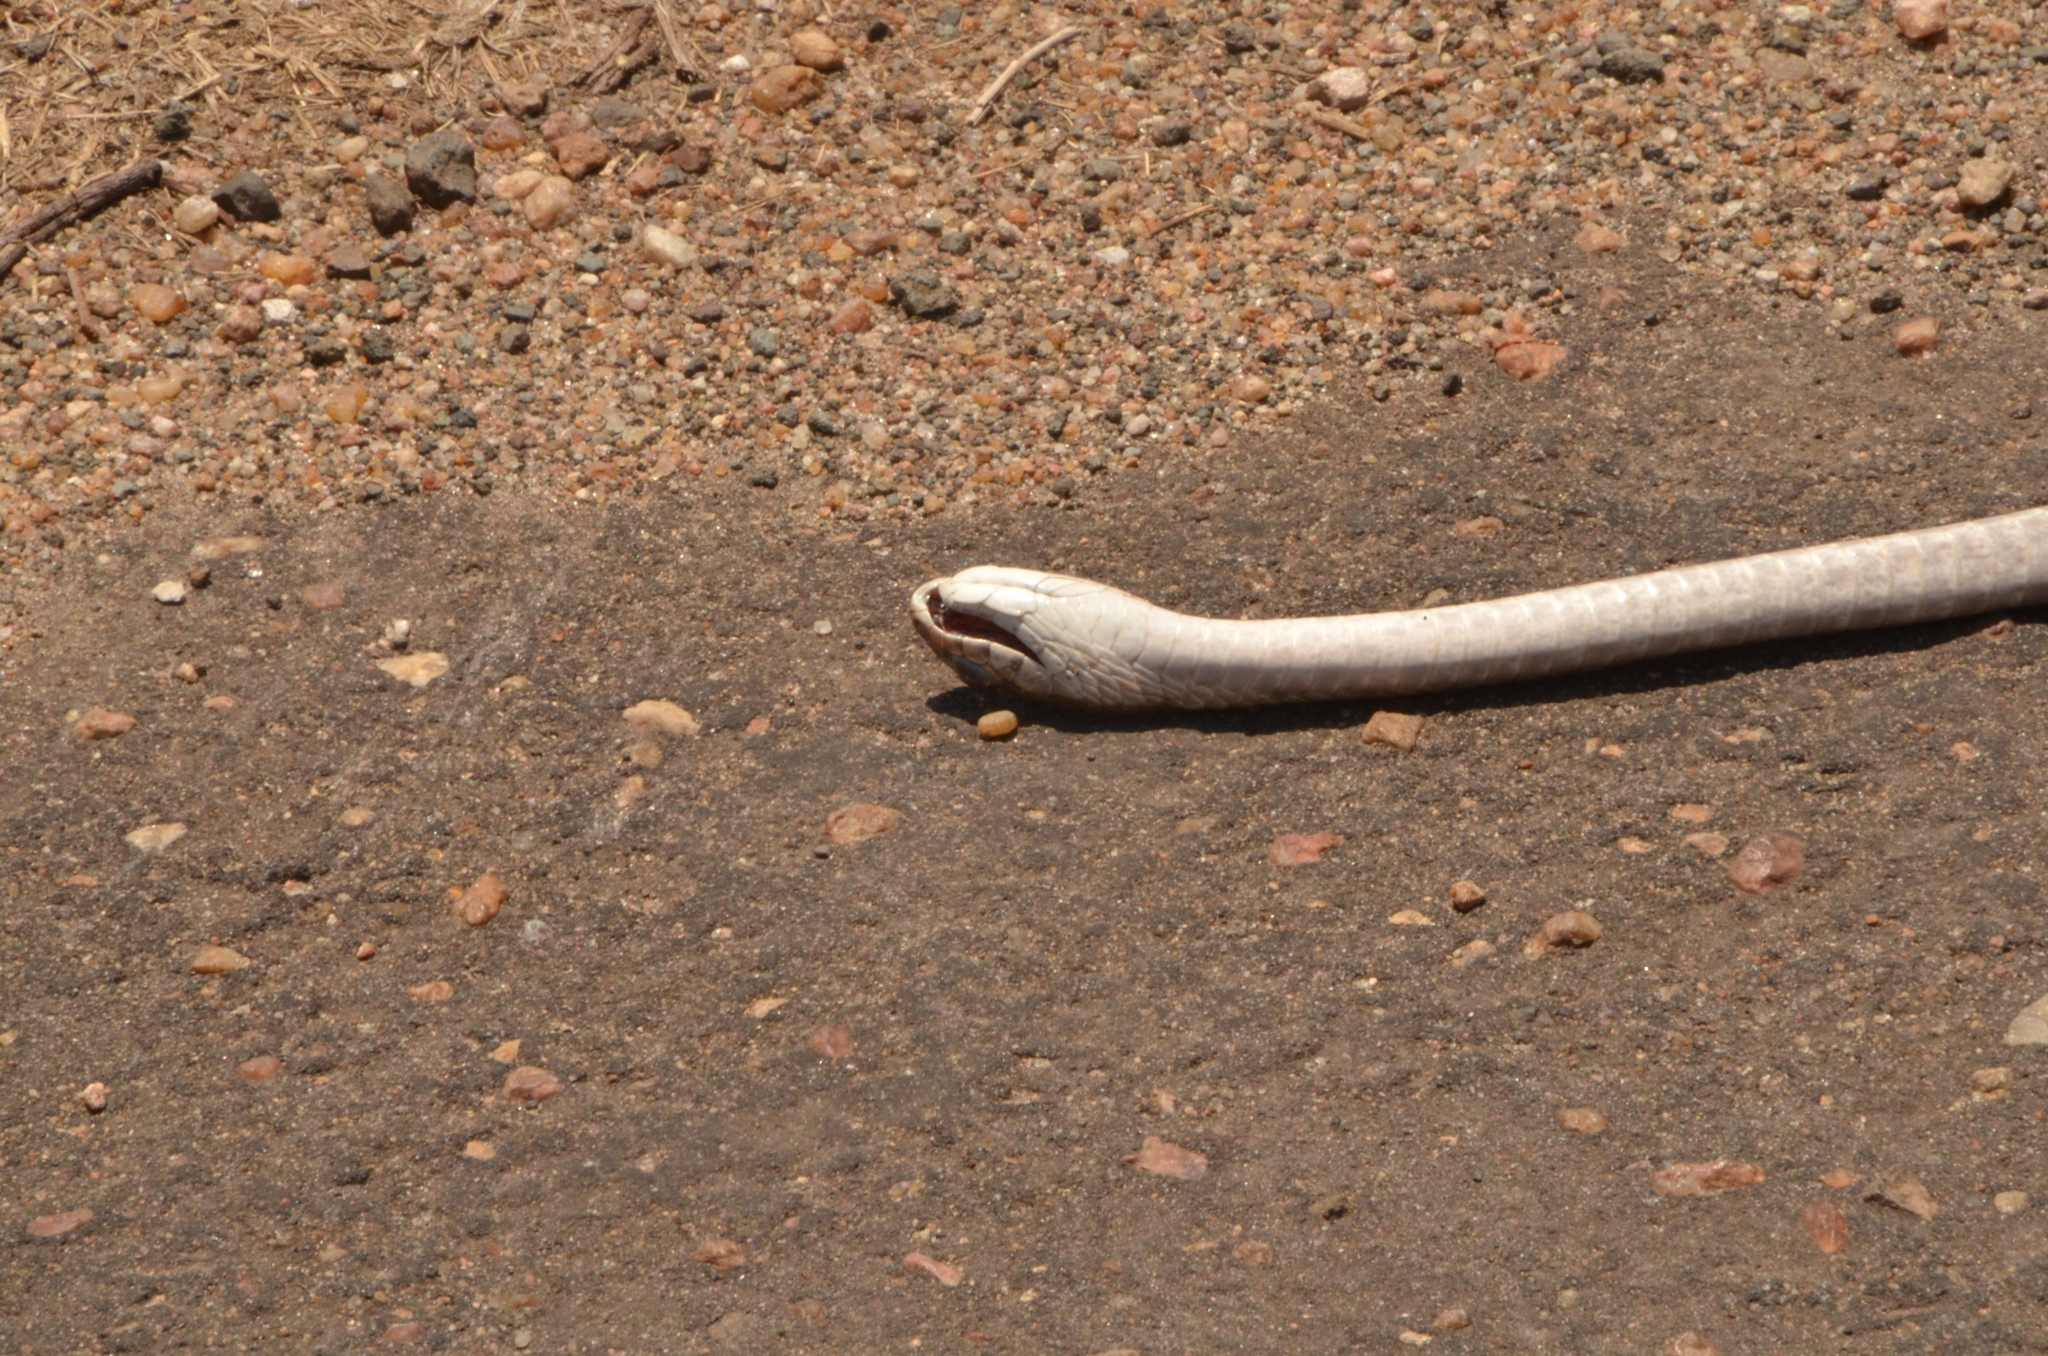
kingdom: Animalia
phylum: Chordata
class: Squamata
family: Colubridae
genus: Dispholidus
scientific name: Dispholidus typus
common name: Boomslang
